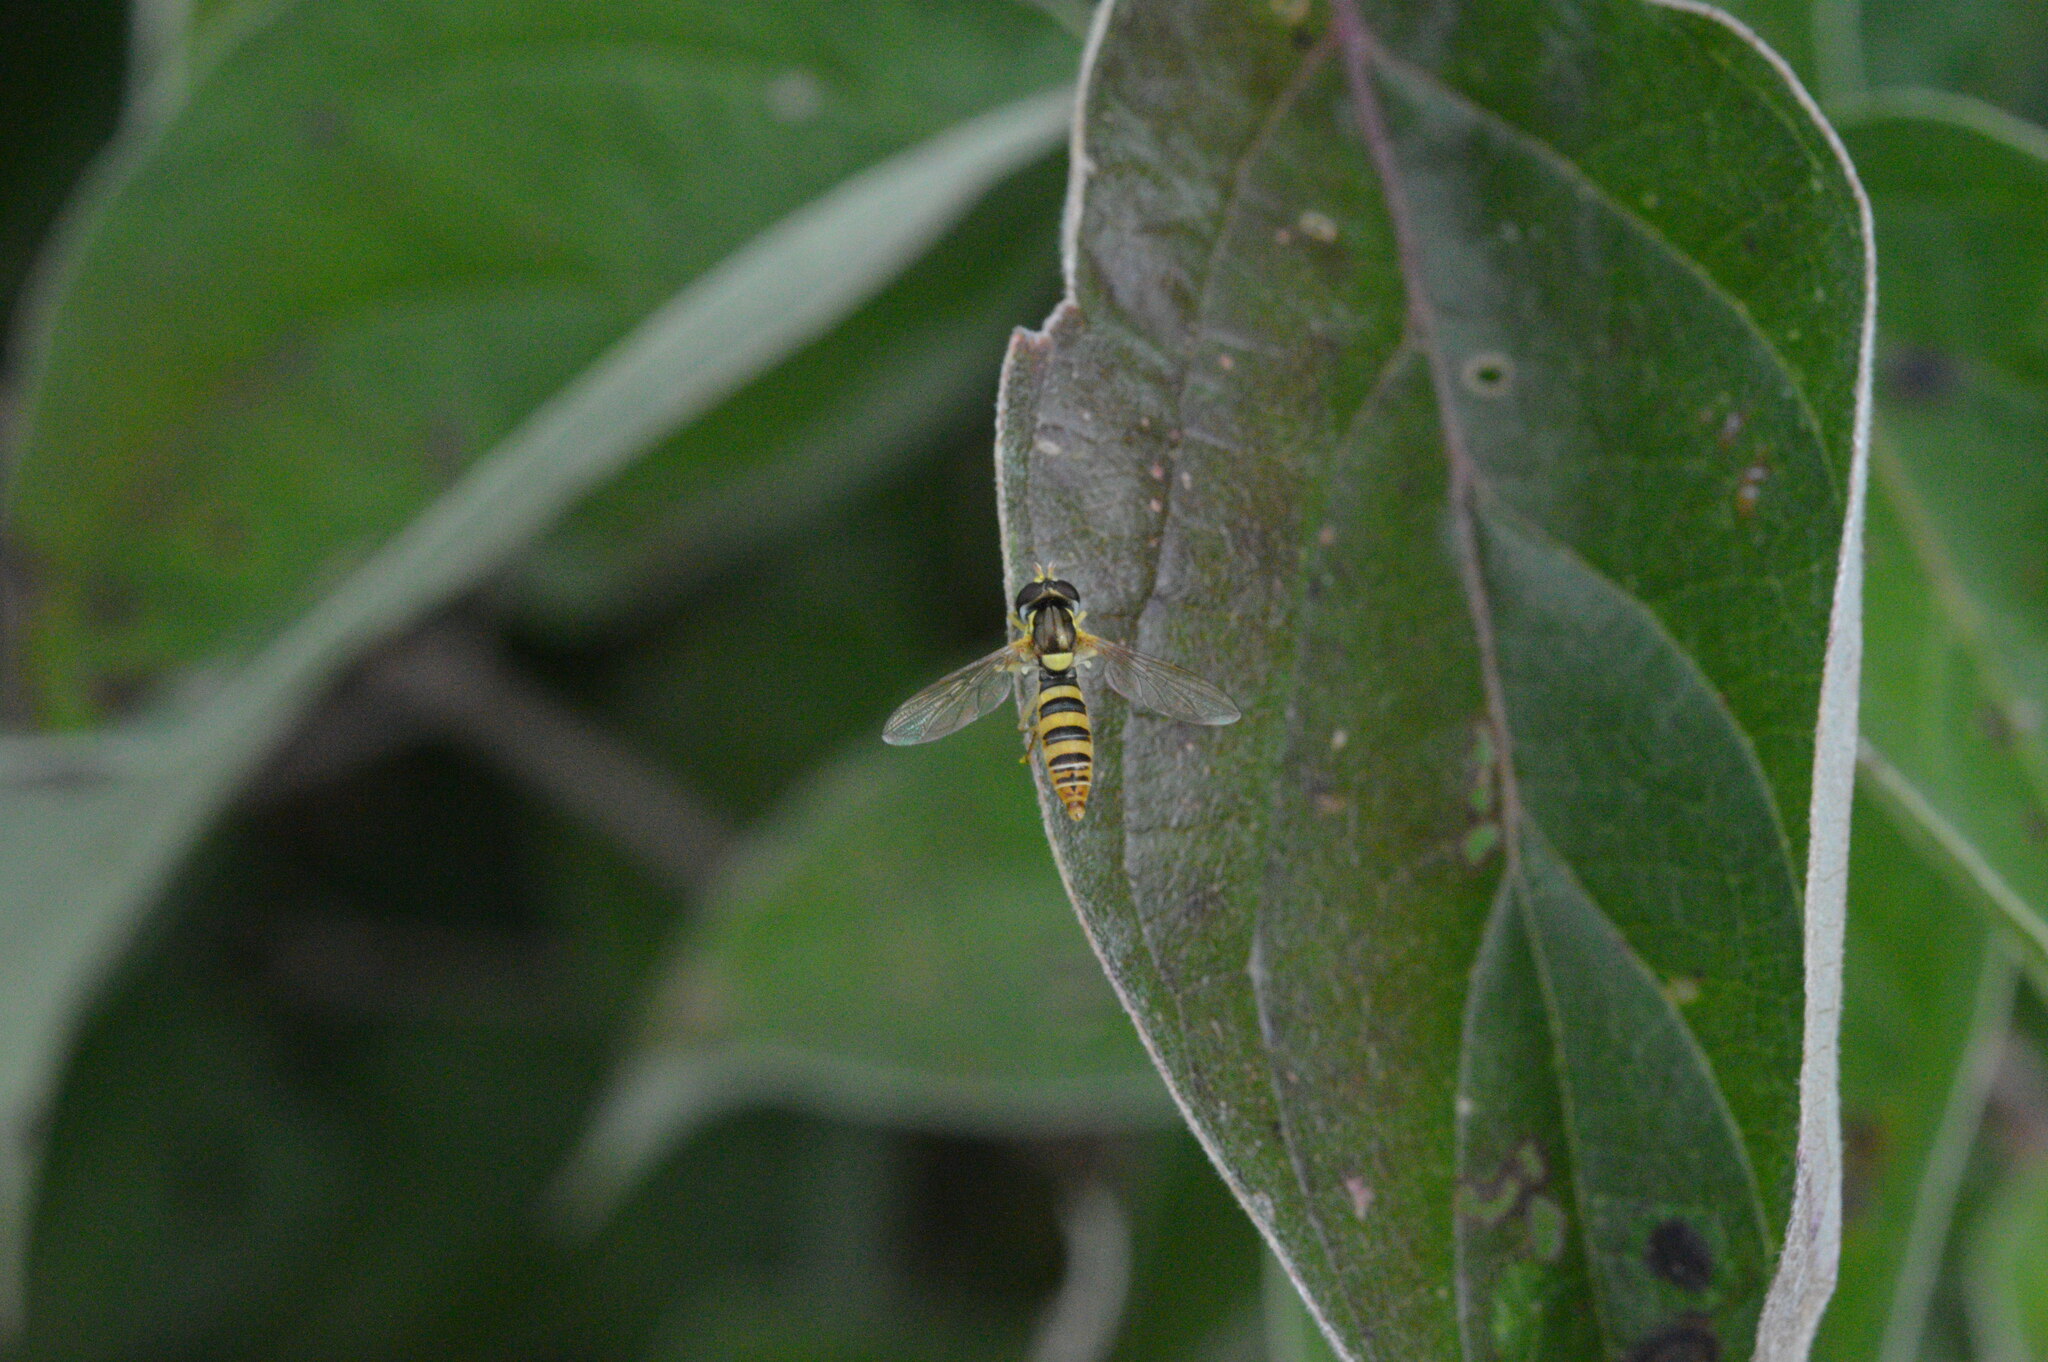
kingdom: Animalia
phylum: Arthropoda
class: Insecta
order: Diptera
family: Syrphidae
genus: Sphaerophoria
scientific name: Sphaerophoria contigua
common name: Tufted globetail
